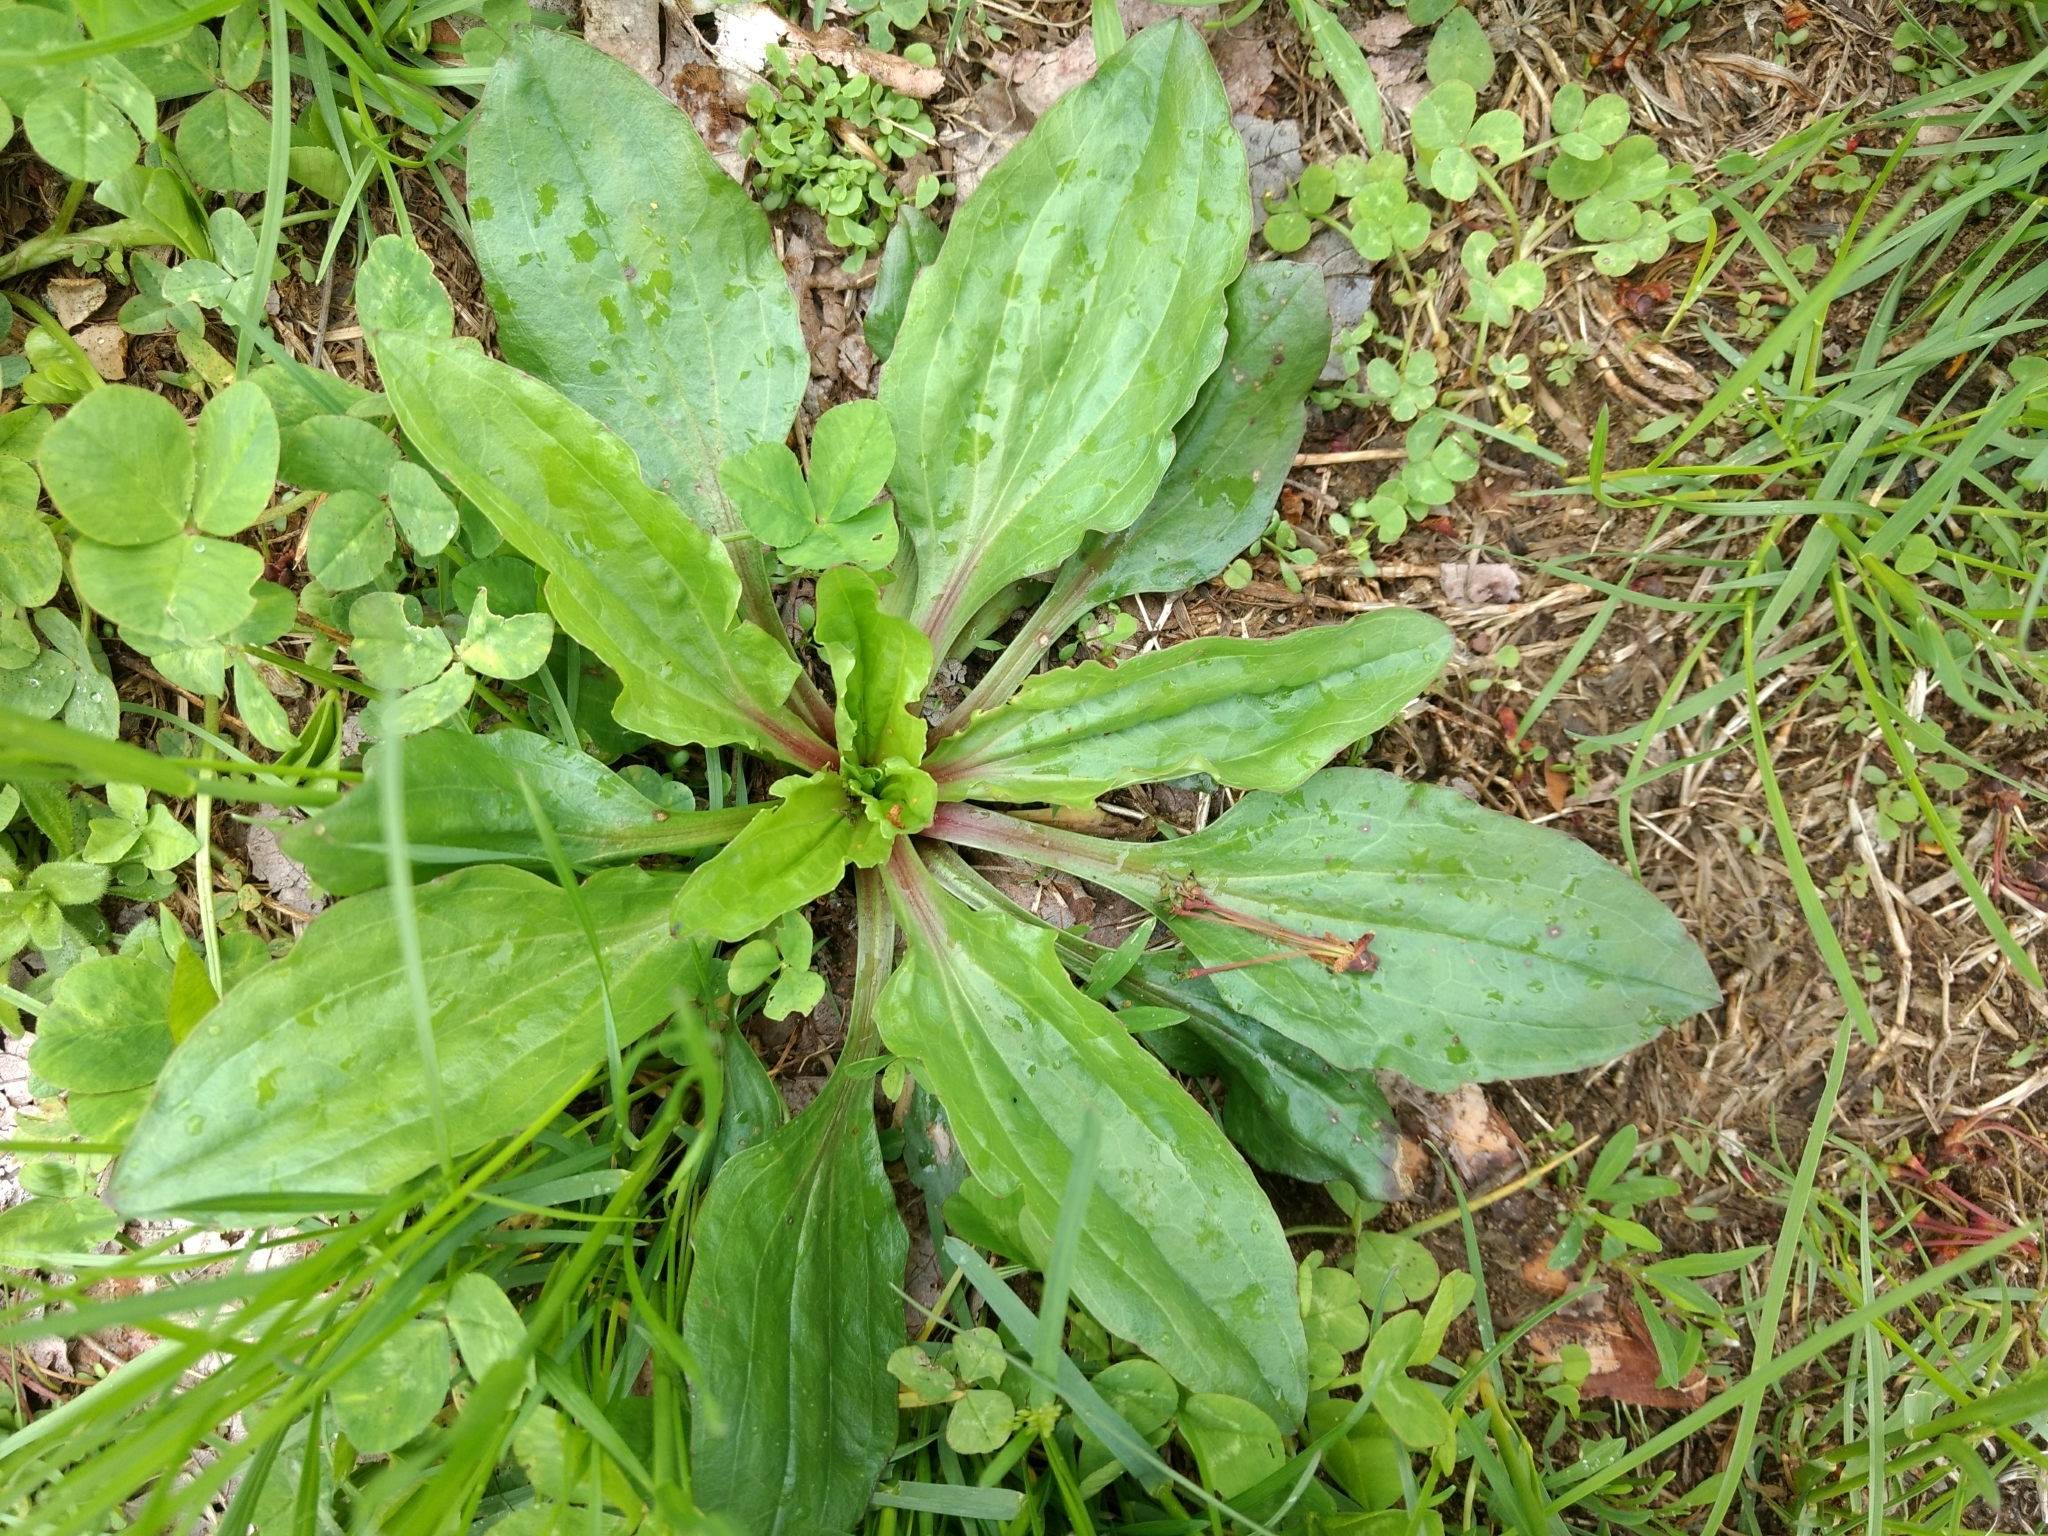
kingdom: Plantae
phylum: Tracheophyta
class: Magnoliopsida
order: Lamiales
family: Plantaginaceae
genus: Plantago
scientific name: Plantago rugelii
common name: American plantain
